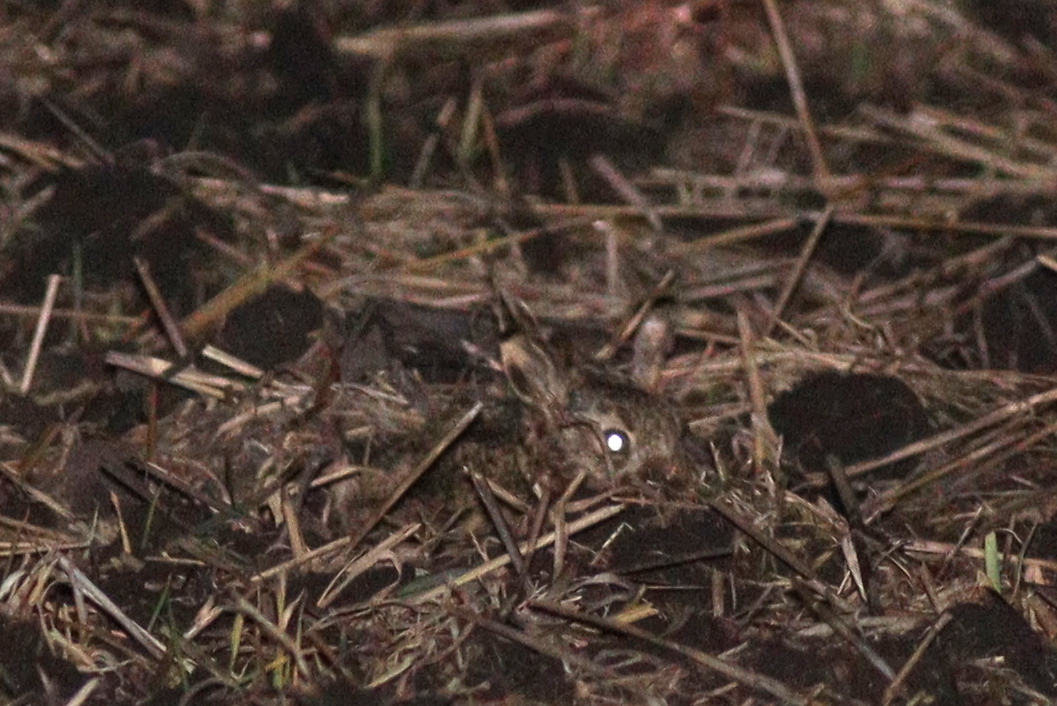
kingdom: Animalia
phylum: Chordata
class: Mammalia
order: Lagomorpha
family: Leporidae
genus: Lepus
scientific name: Lepus europaeus
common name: European hare
